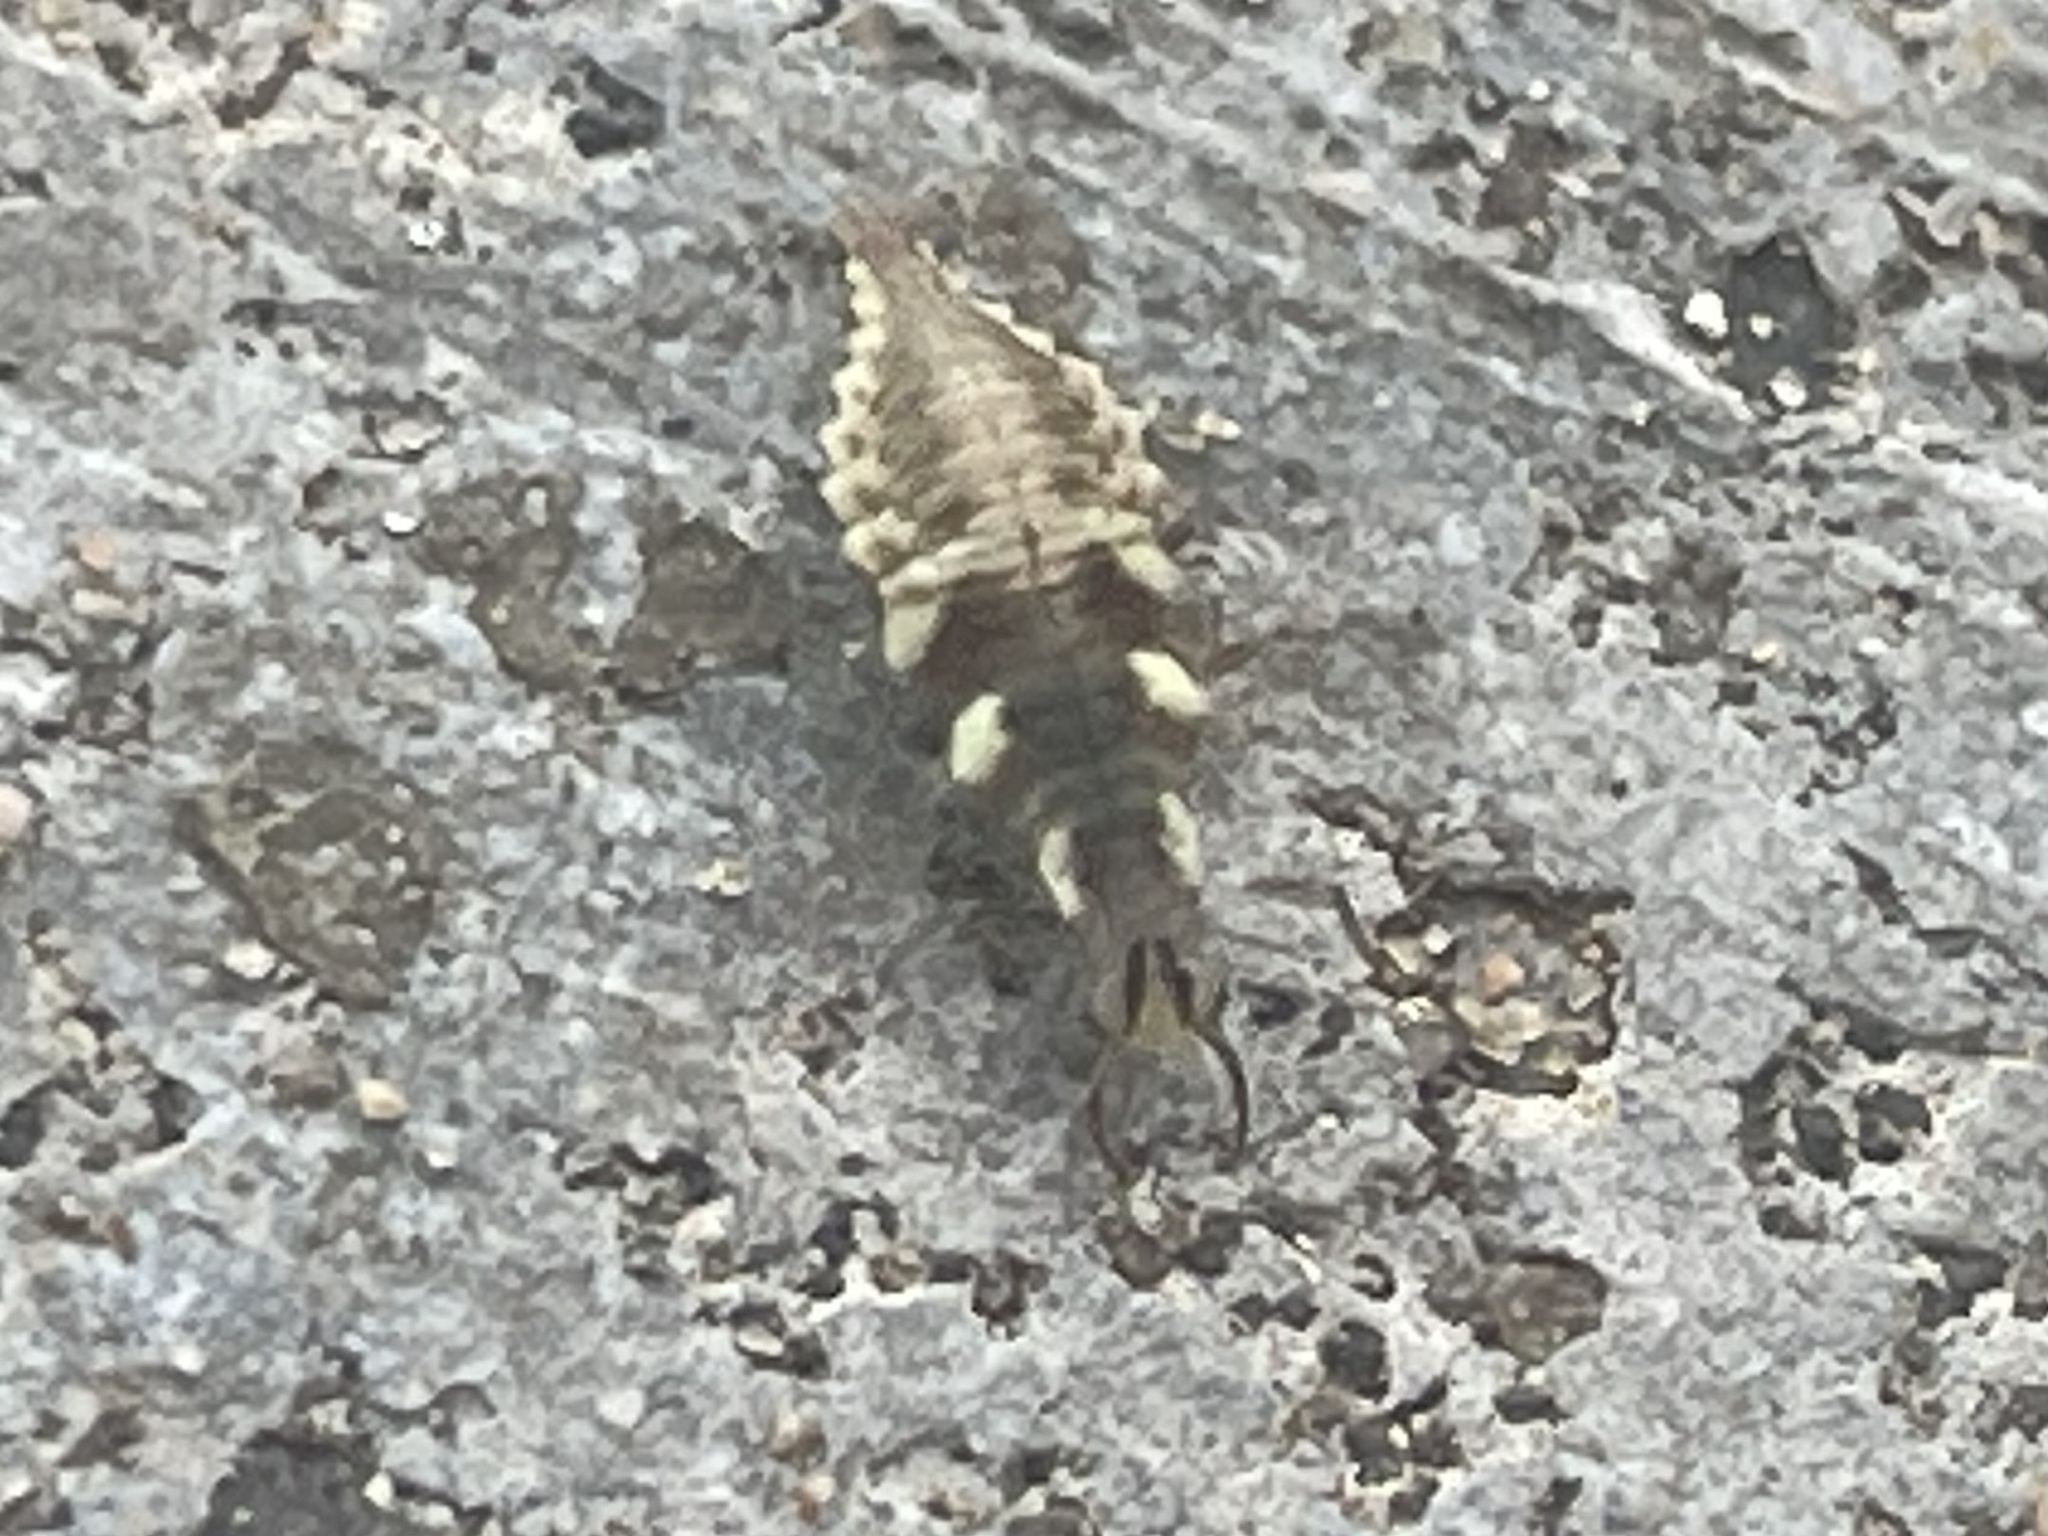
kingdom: Animalia
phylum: Arthropoda
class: Insecta
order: Neuroptera
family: Chrysopidae
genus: Chrysoperla
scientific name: Chrysoperla rufilabris
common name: Red-lipped green lacewing
